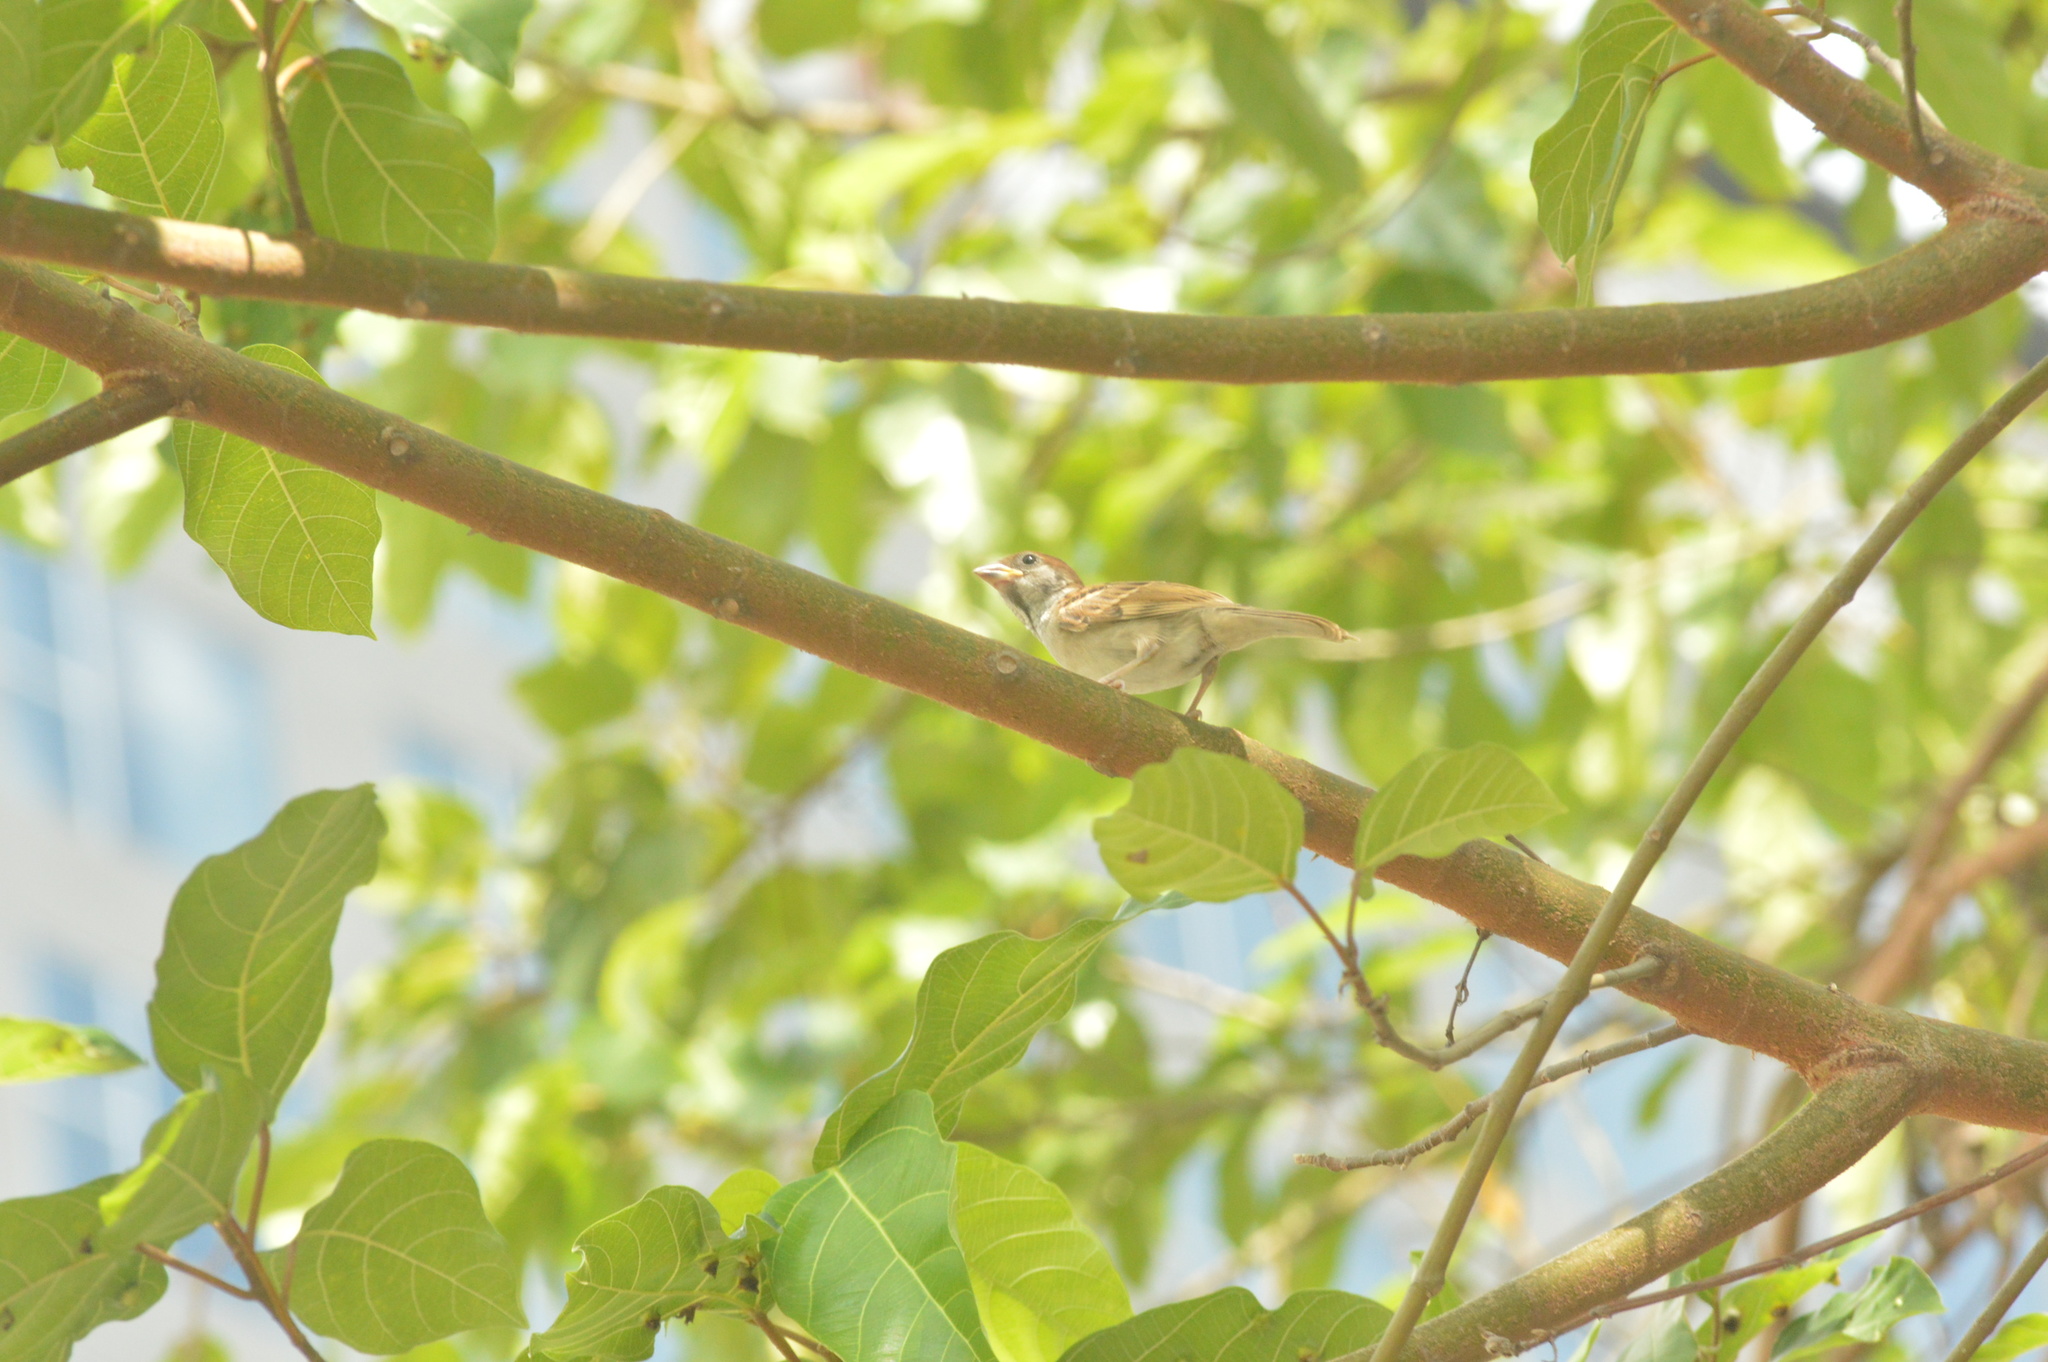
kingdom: Animalia
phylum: Chordata
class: Aves
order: Passeriformes
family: Passeridae
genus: Passer
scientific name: Passer montanus
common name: Eurasian tree sparrow
